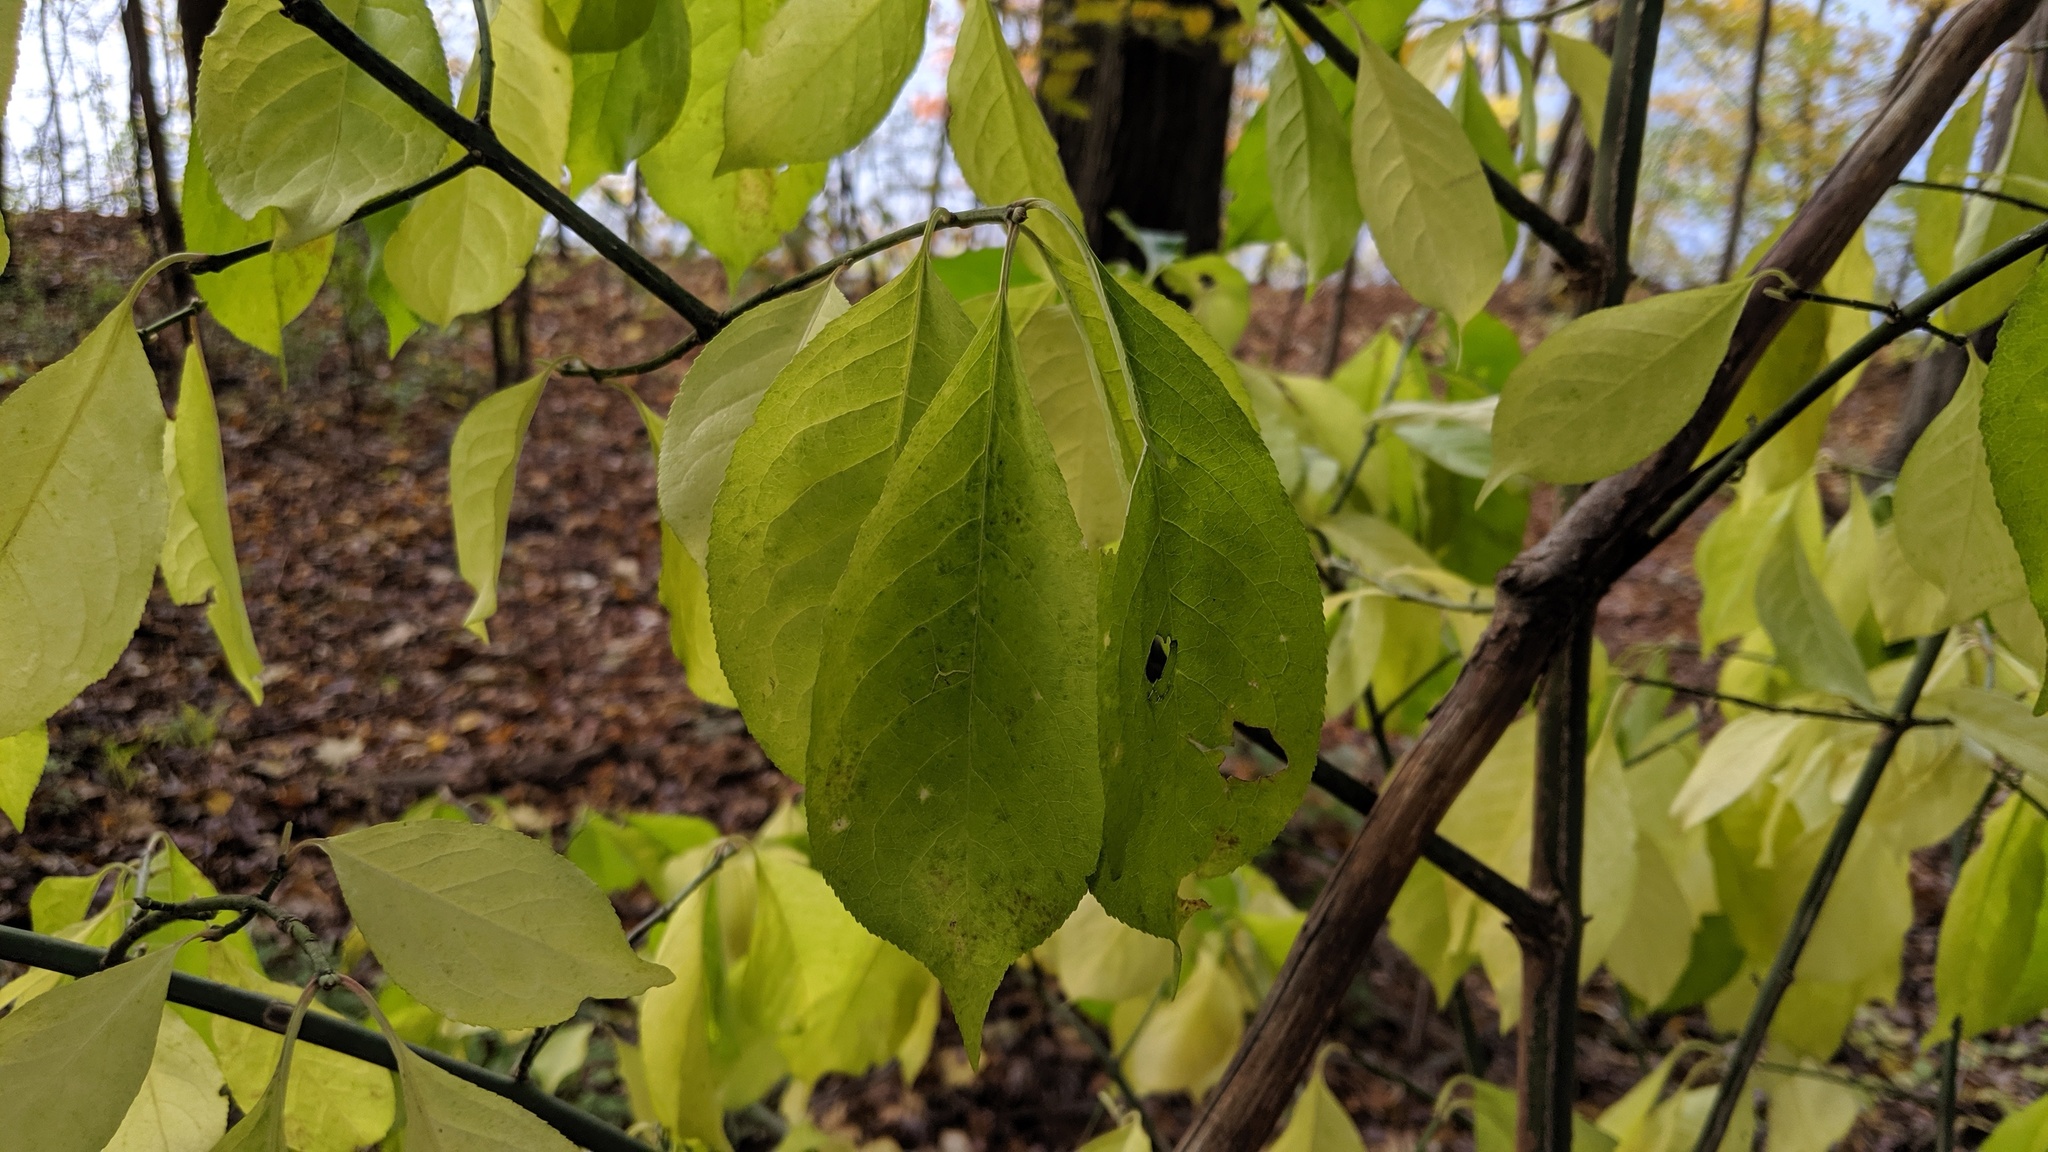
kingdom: Plantae
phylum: Tracheophyta
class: Magnoliopsida
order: Celastrales
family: Celastraceae
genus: Euonymus
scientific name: Euonymus atropurpureus
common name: Eastern wahoo
